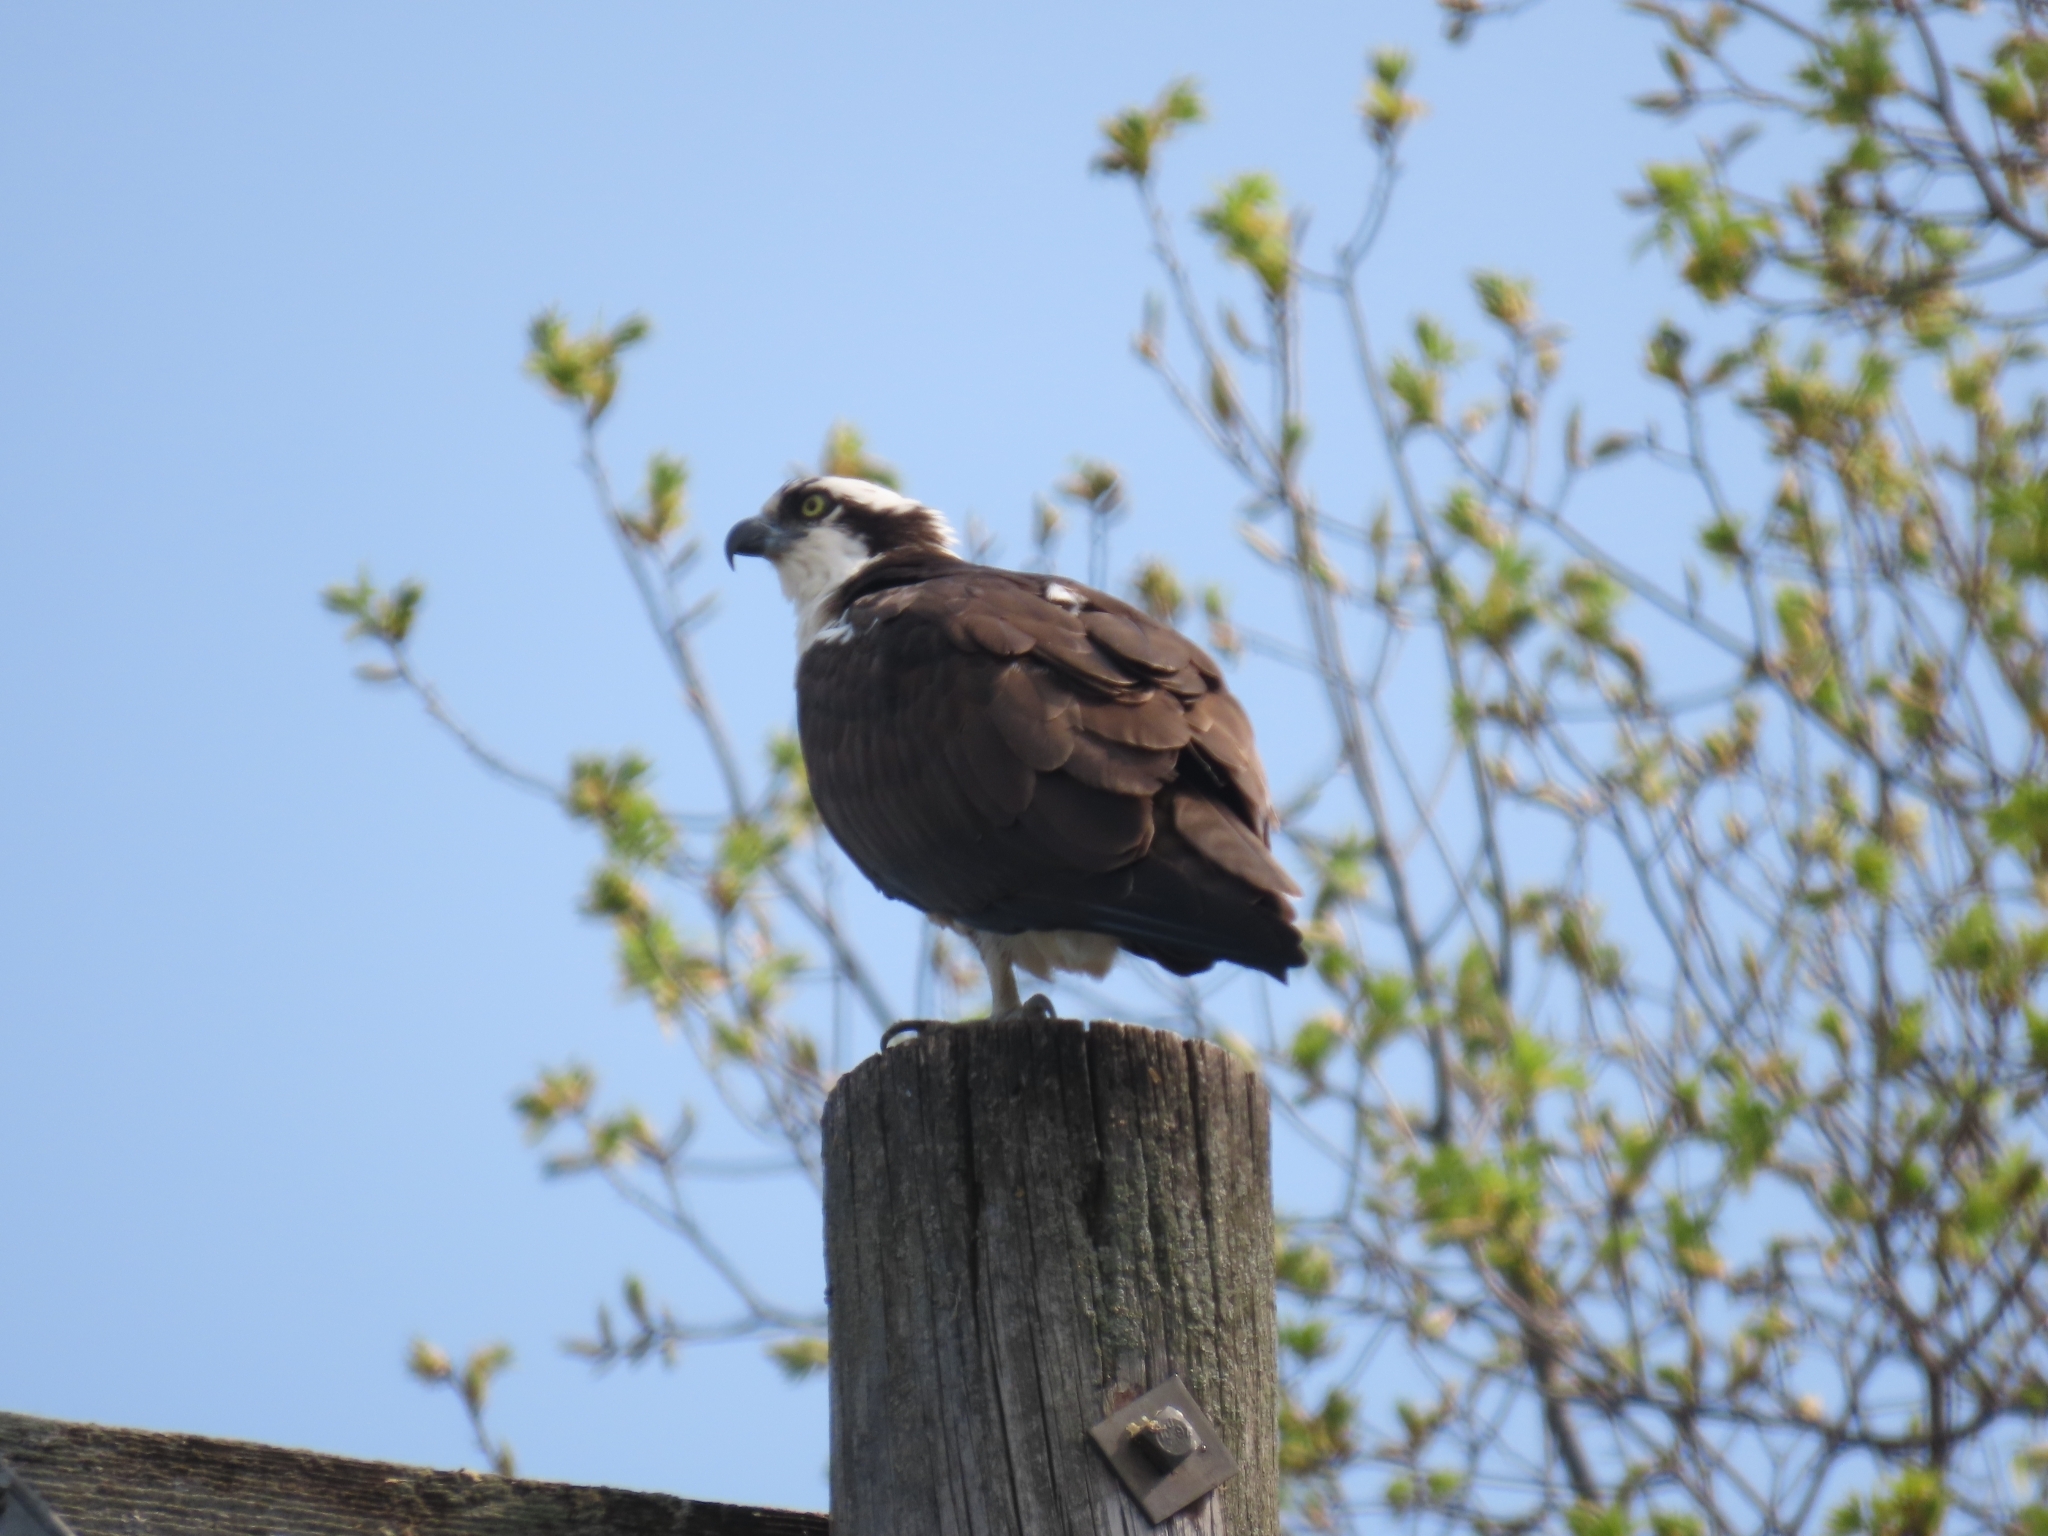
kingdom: Animalia
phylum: Chordata
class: Aves
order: Accipitriformes
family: Pandionidae
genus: Pandion
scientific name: Pandion haliaetus
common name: Osprey
